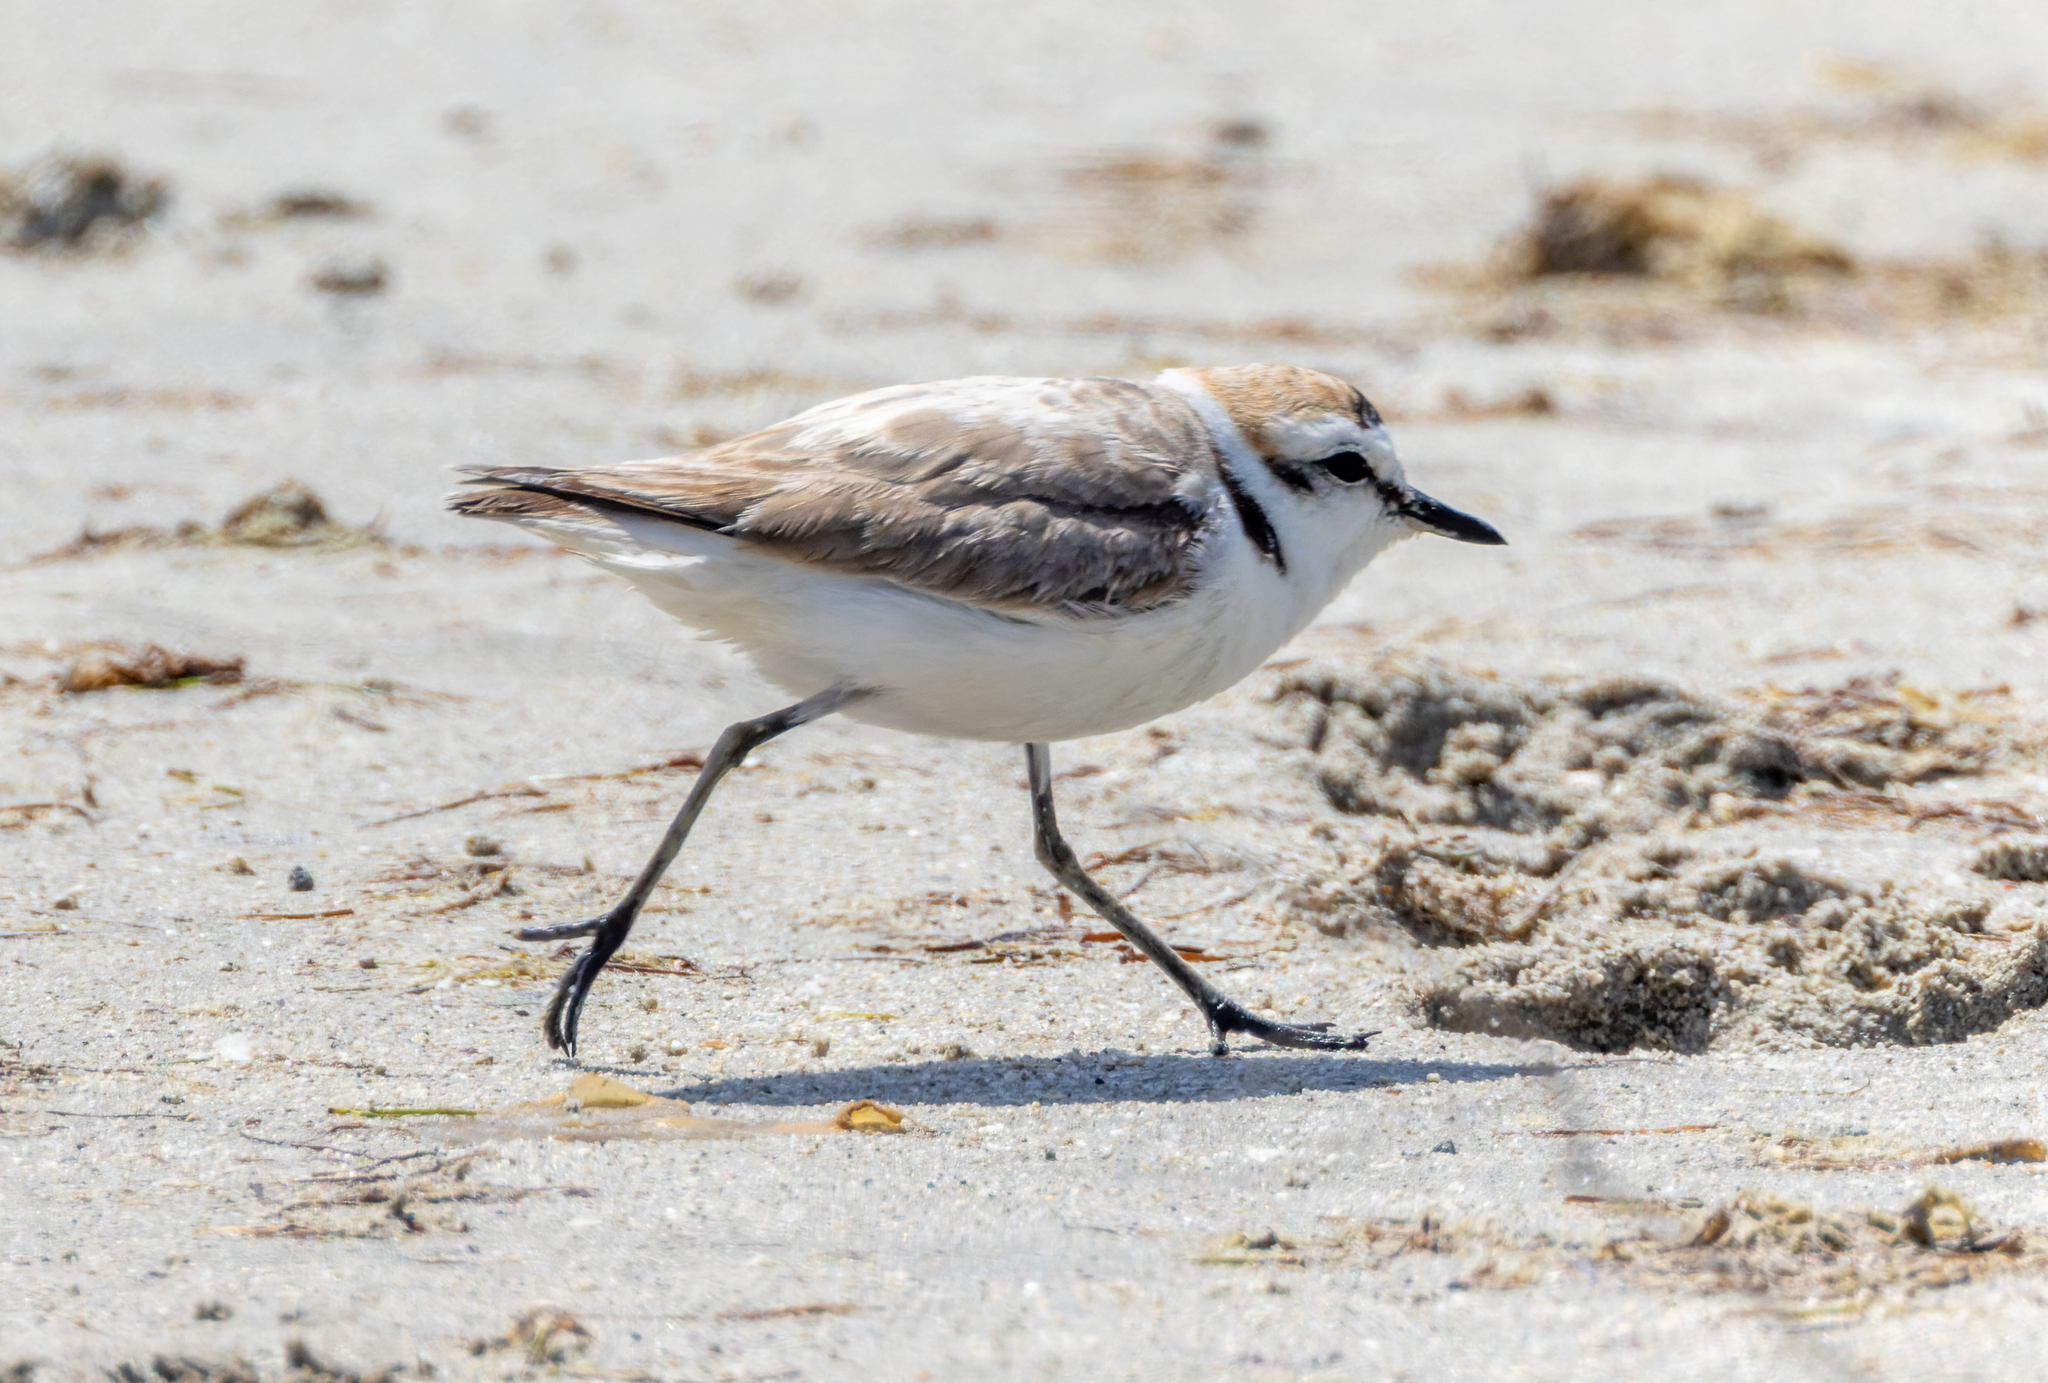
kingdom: Animalia
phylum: Chordata
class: Aves
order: Charadriiformes
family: Charadriidae
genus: Charadrius
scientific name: Charadrius alexandrinus
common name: Kentish plover
